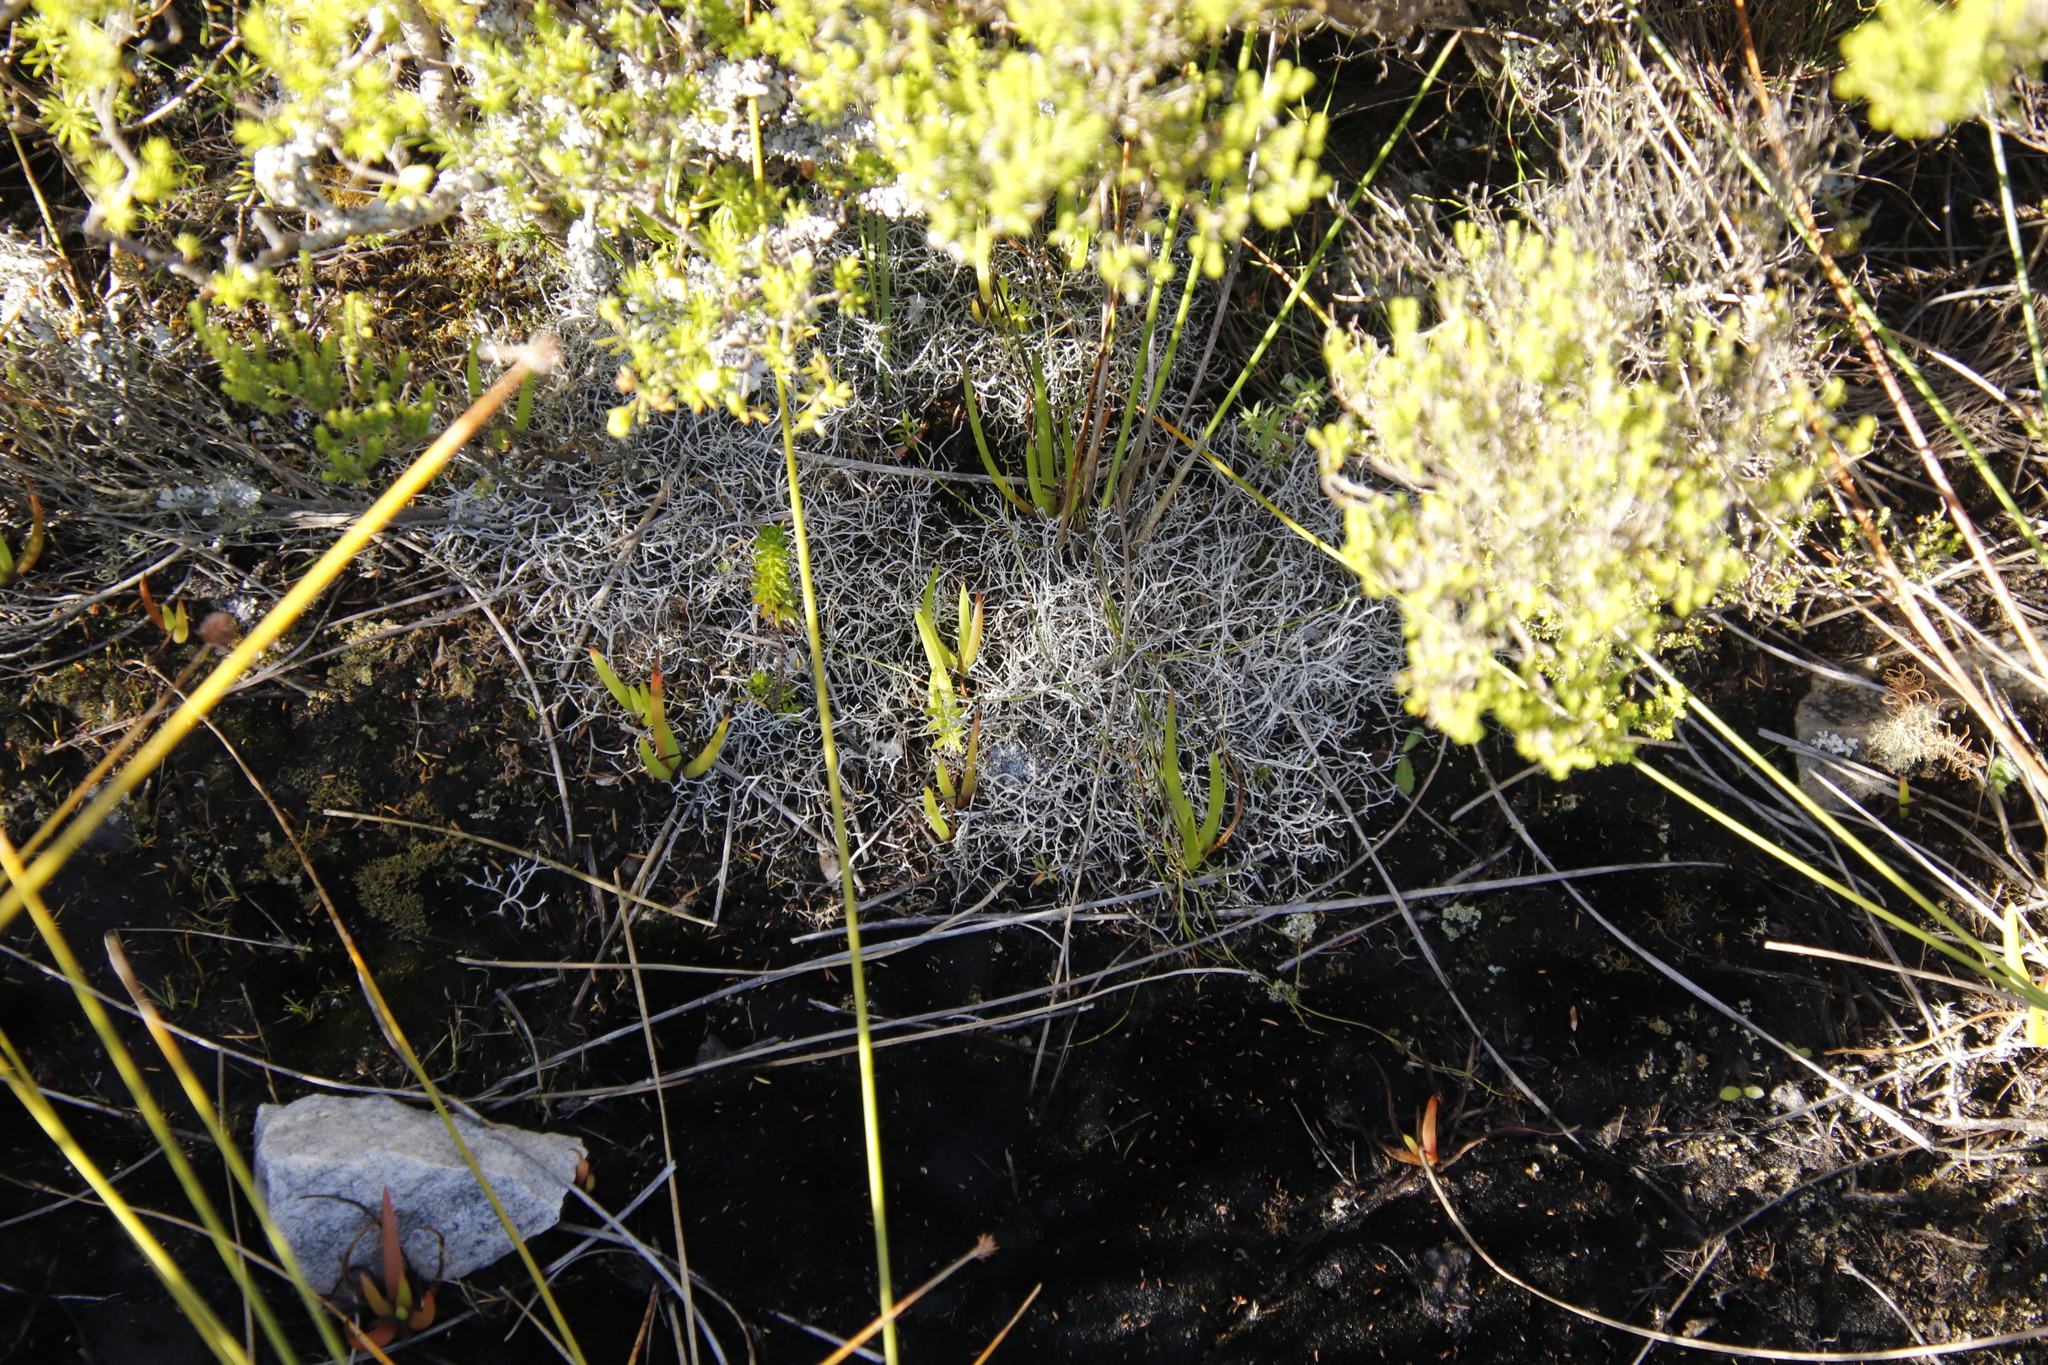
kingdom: Fungi
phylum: Ascomycota
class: Lecanoromycetes
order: Caliciales
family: Physciaceae
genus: Leucodermia
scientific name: Leucodermia leucomelos
